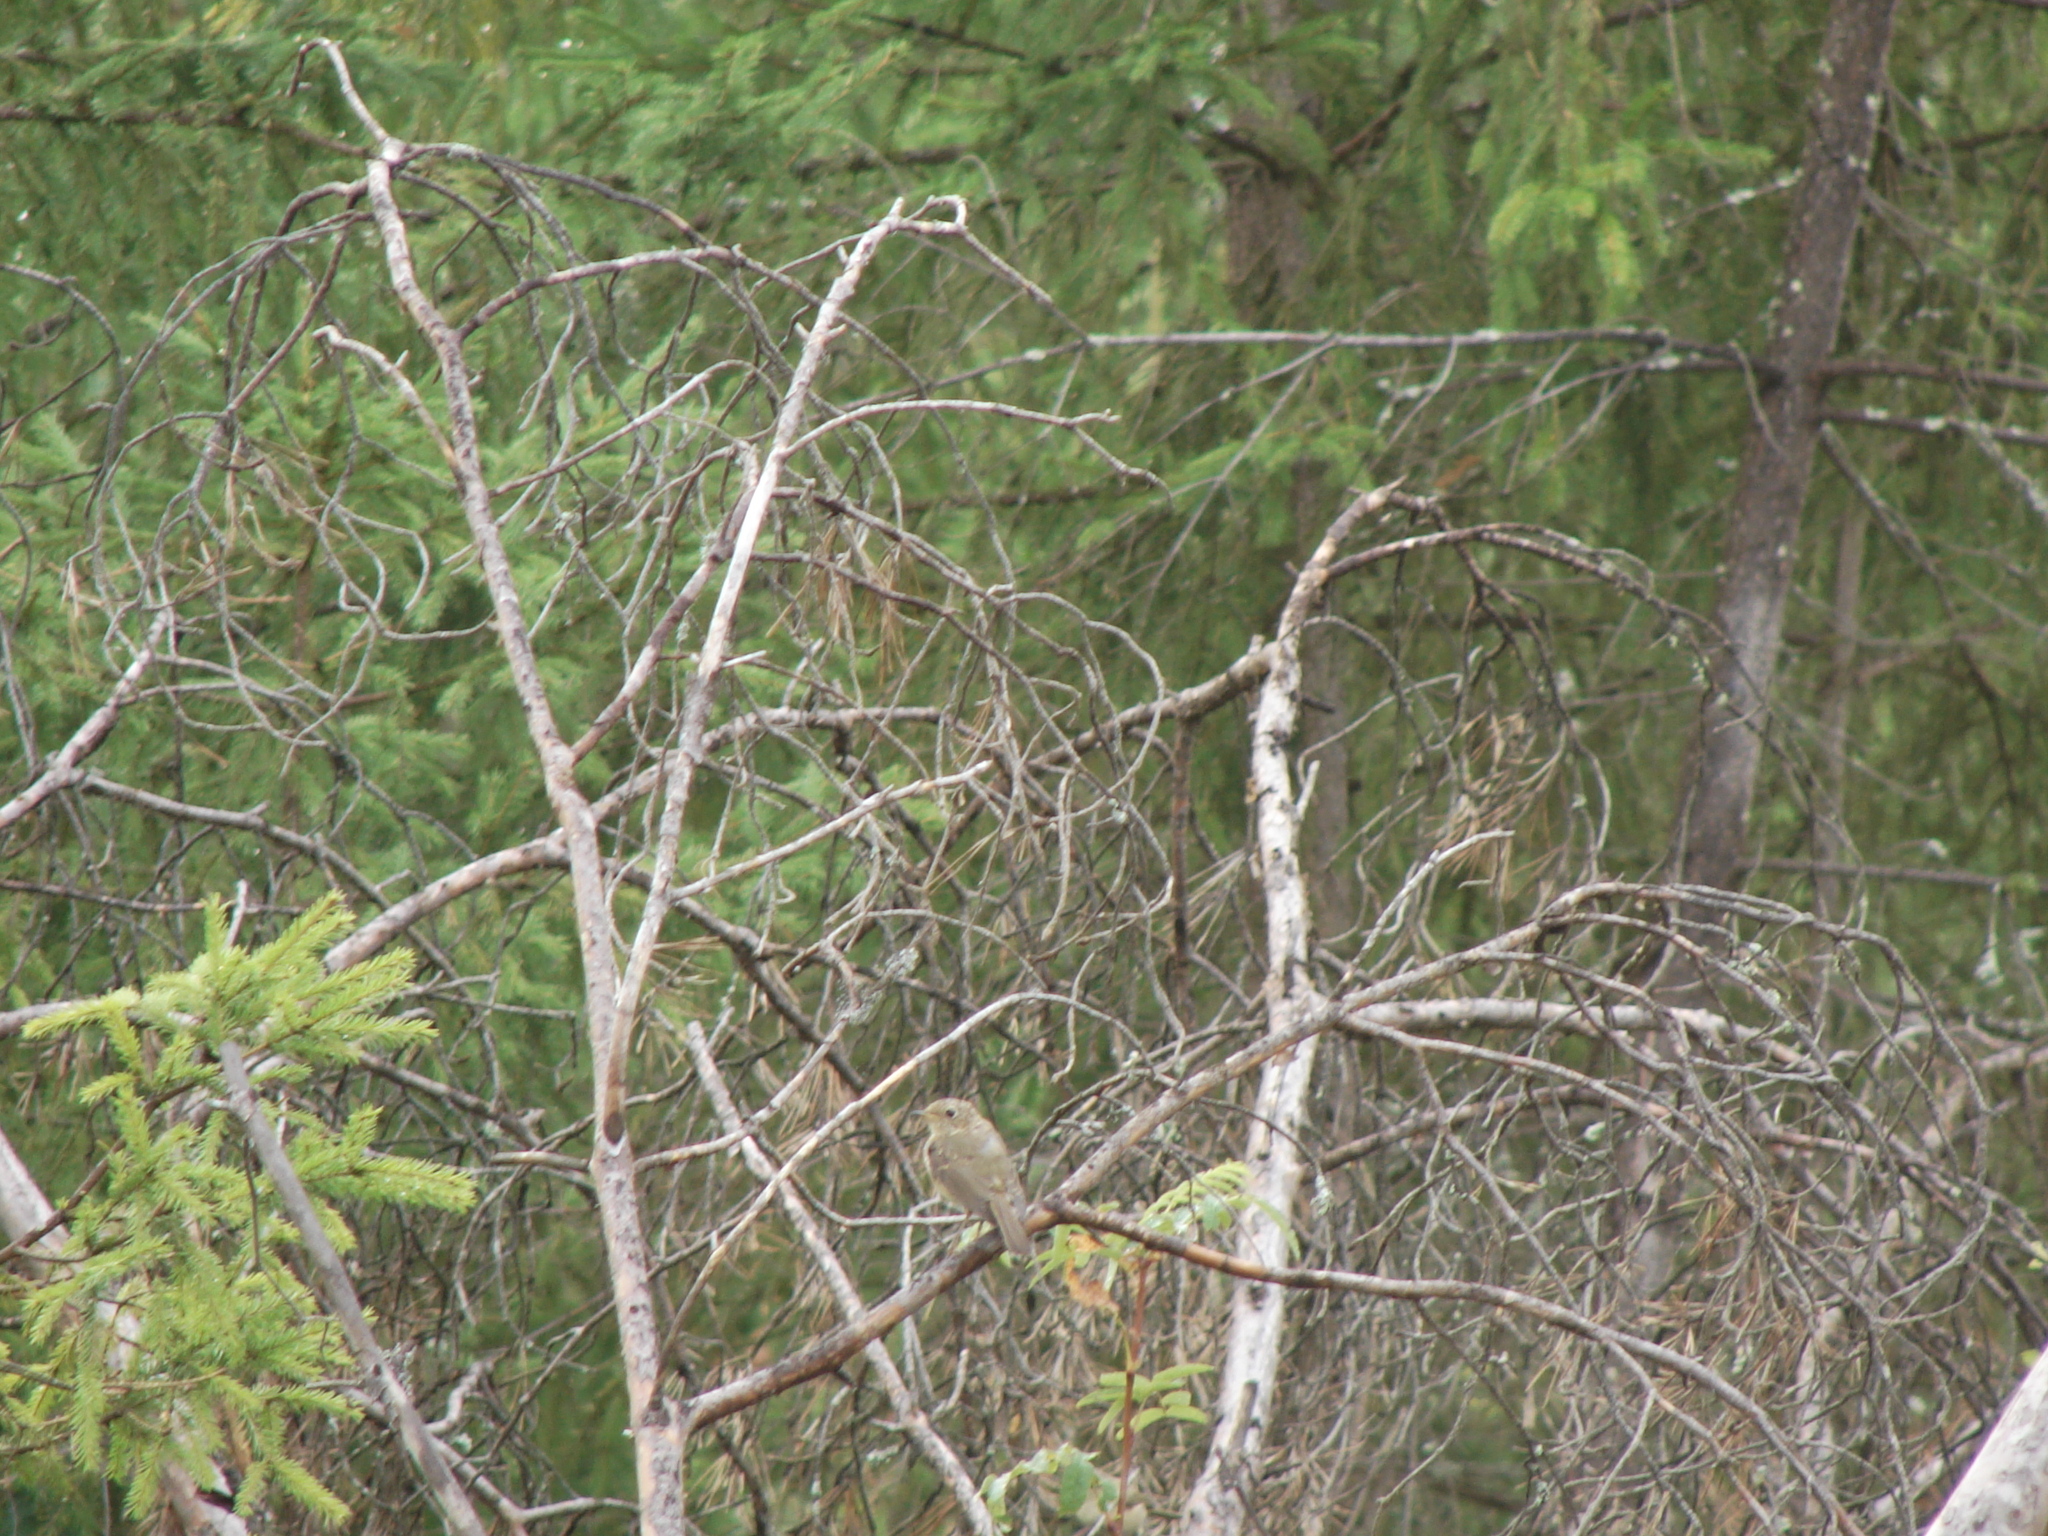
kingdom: Animalia
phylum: Chordata
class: Aves
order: Passeriformes
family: Muscicapidae
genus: Muscicapa
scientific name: Muscicapa striata
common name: Spotted flycatcher
